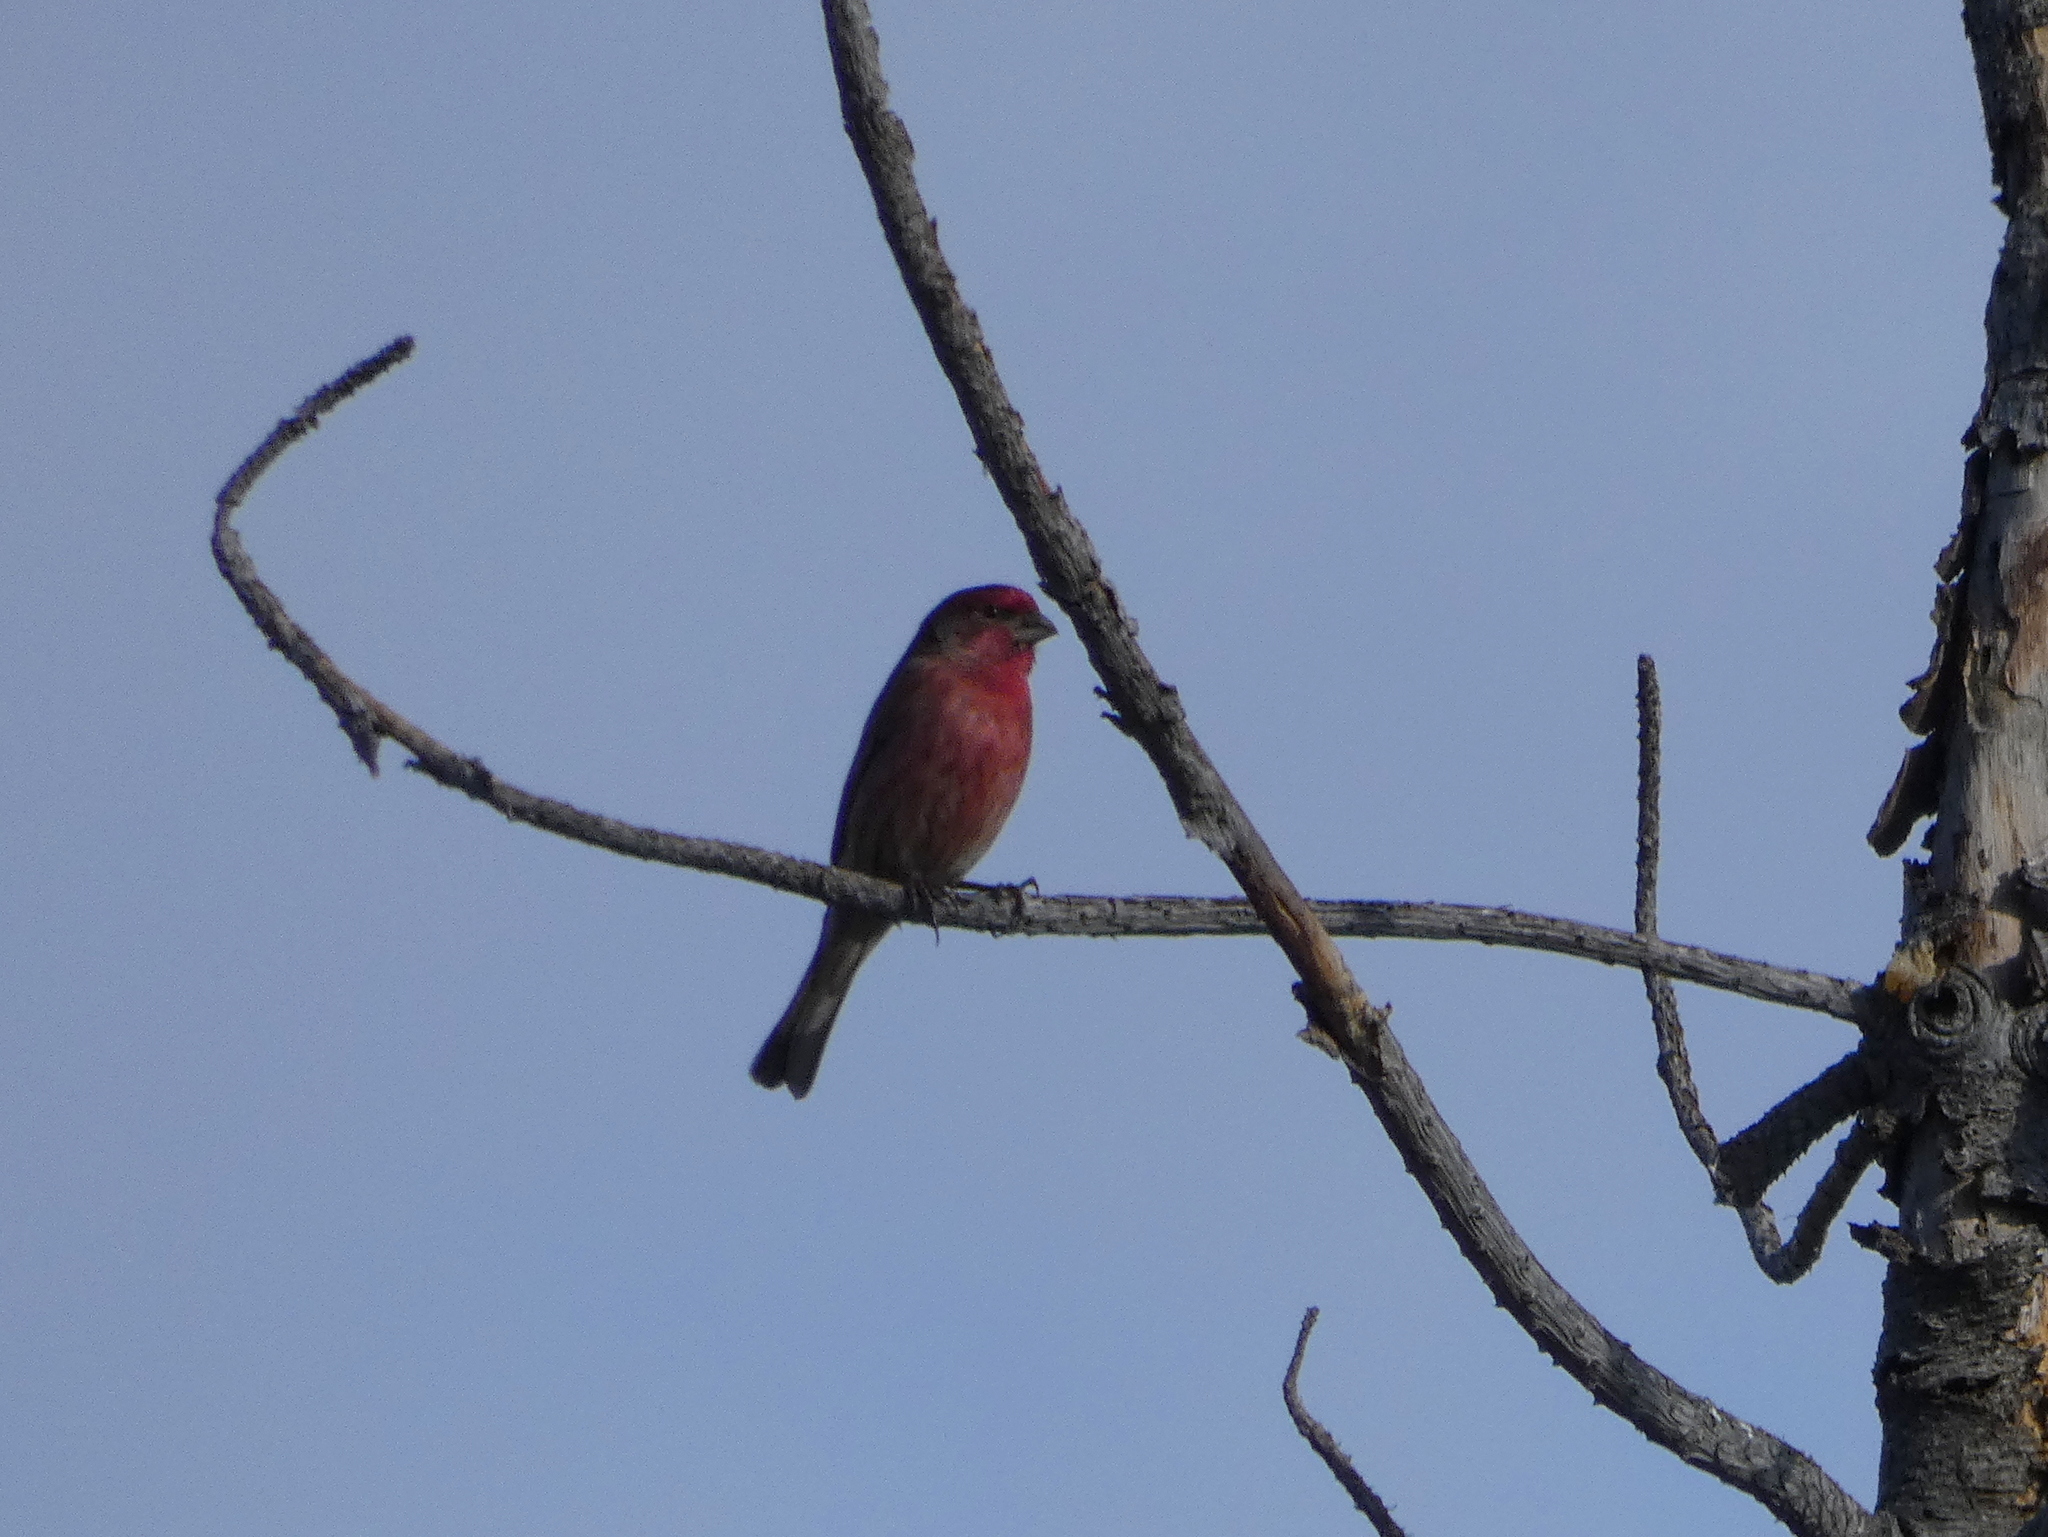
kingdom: Animalia
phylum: Chordata
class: Aves
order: Passeriformes
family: Fringillidae
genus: Haemorhous
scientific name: Haemorhous mexicanus
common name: House finch
